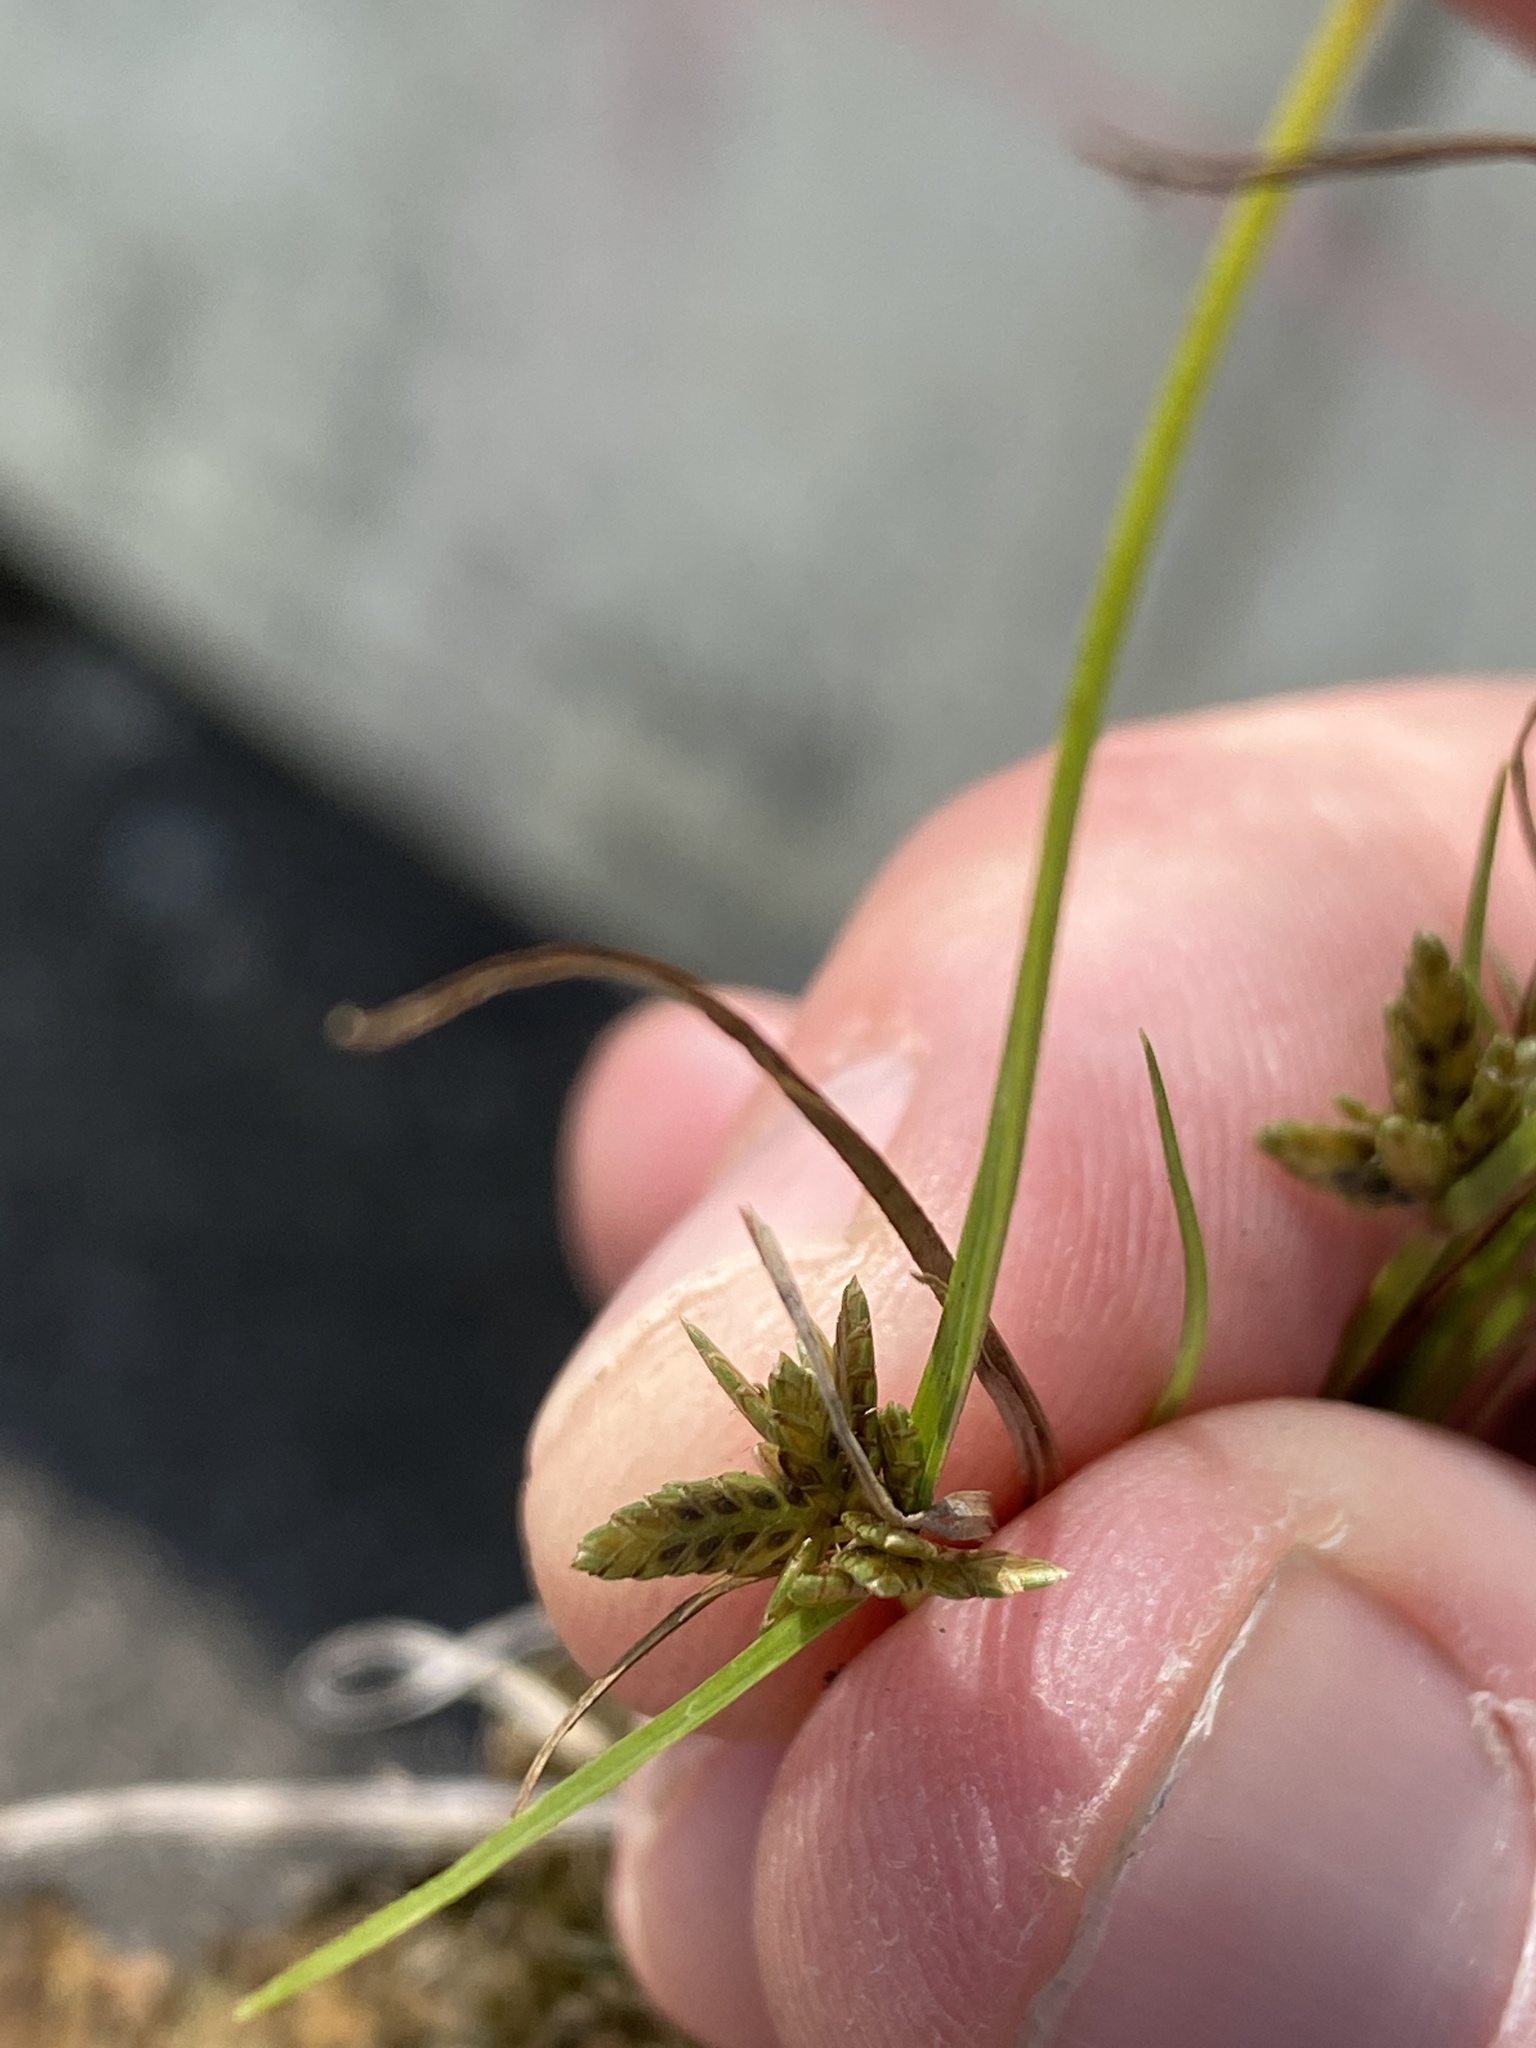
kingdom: Plantae
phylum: Tracheophyta
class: Liliopsida
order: Poales
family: Cyperaceae
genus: Cyperus
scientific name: Cyperus flavescens
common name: Yellow galingale
